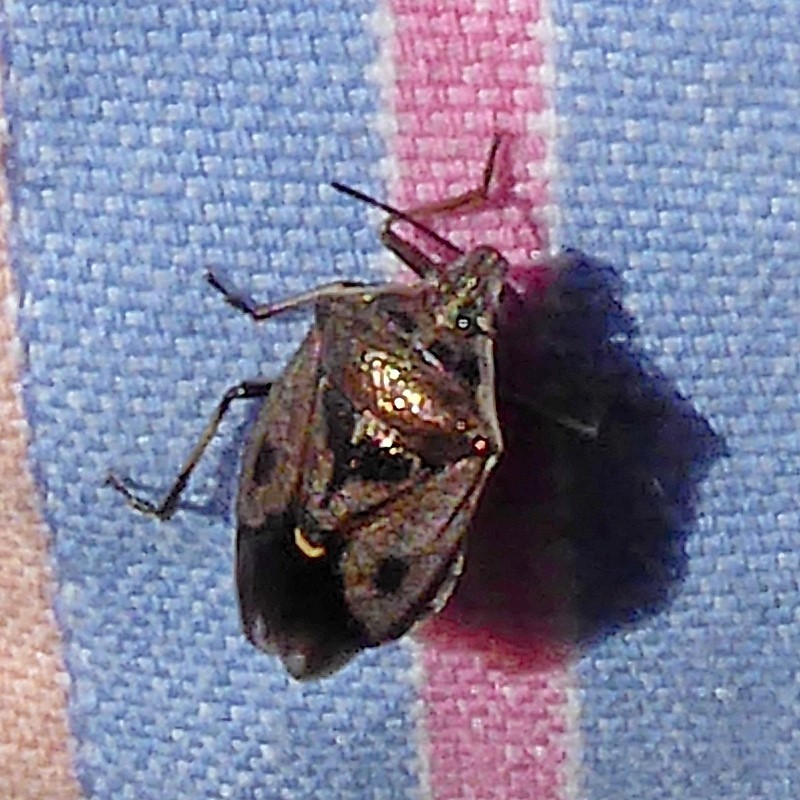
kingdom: Animalia
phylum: Arthropoda
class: Insecta
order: Hemiptera
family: Pentatomidae
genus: Cermatulus
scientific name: Cermatulus nasalis
